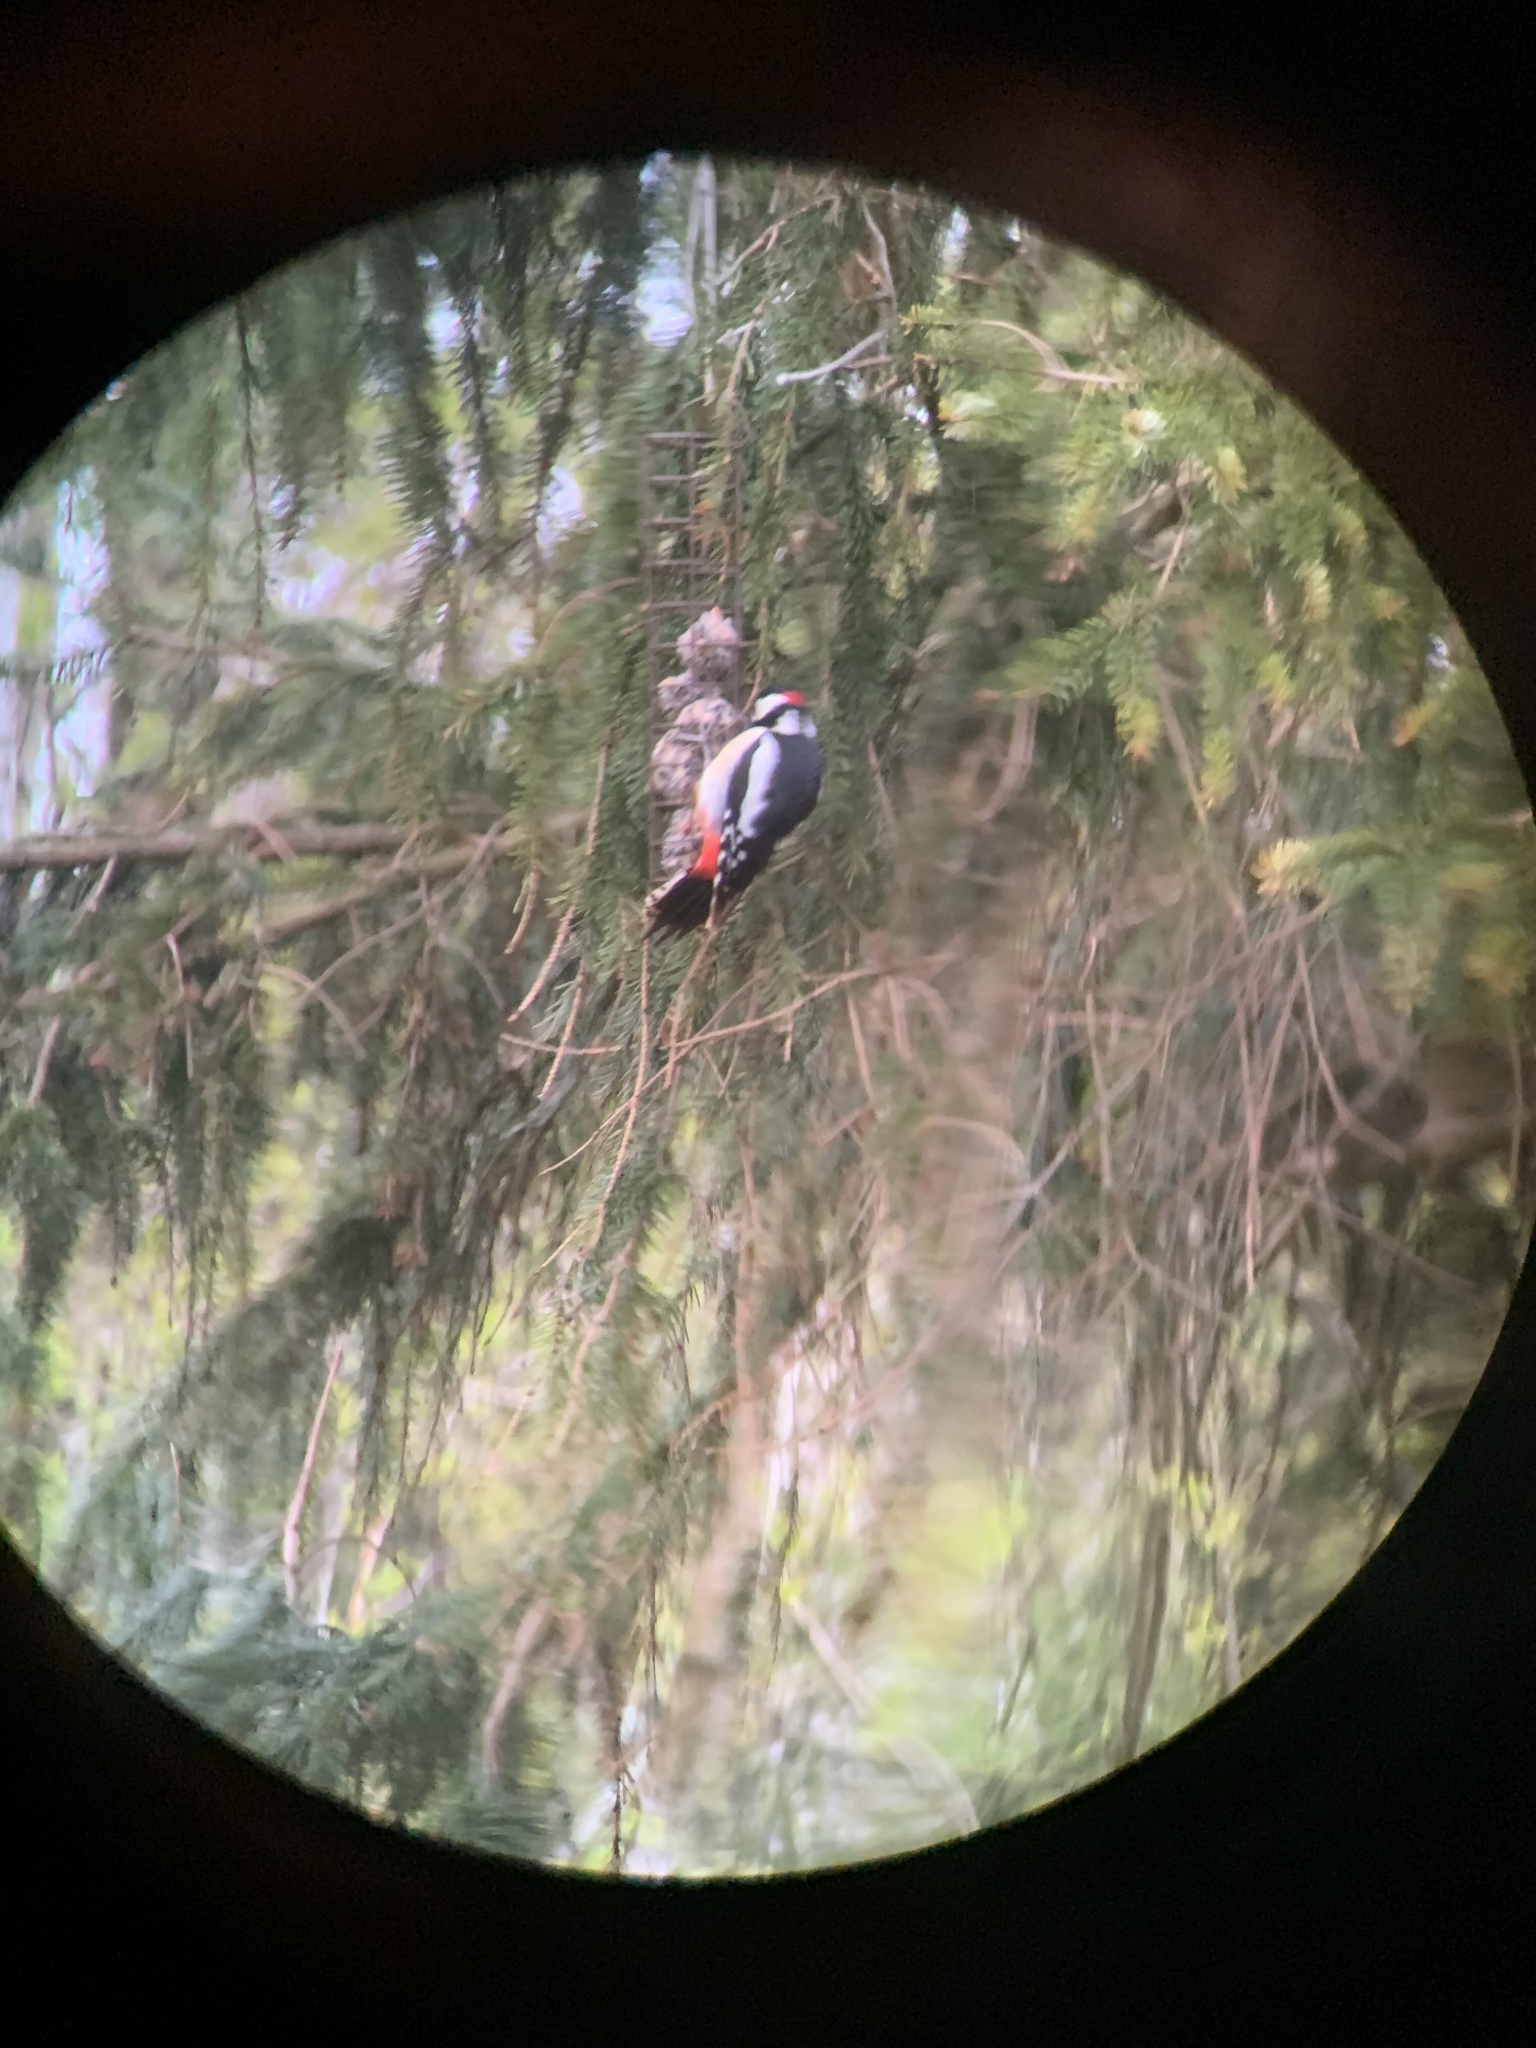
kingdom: Animalia
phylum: Chordata
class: Aves
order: Piciformes
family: Picidae
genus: Dendrocopos
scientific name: Dendrocopos major
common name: Great spotted woodpecker
